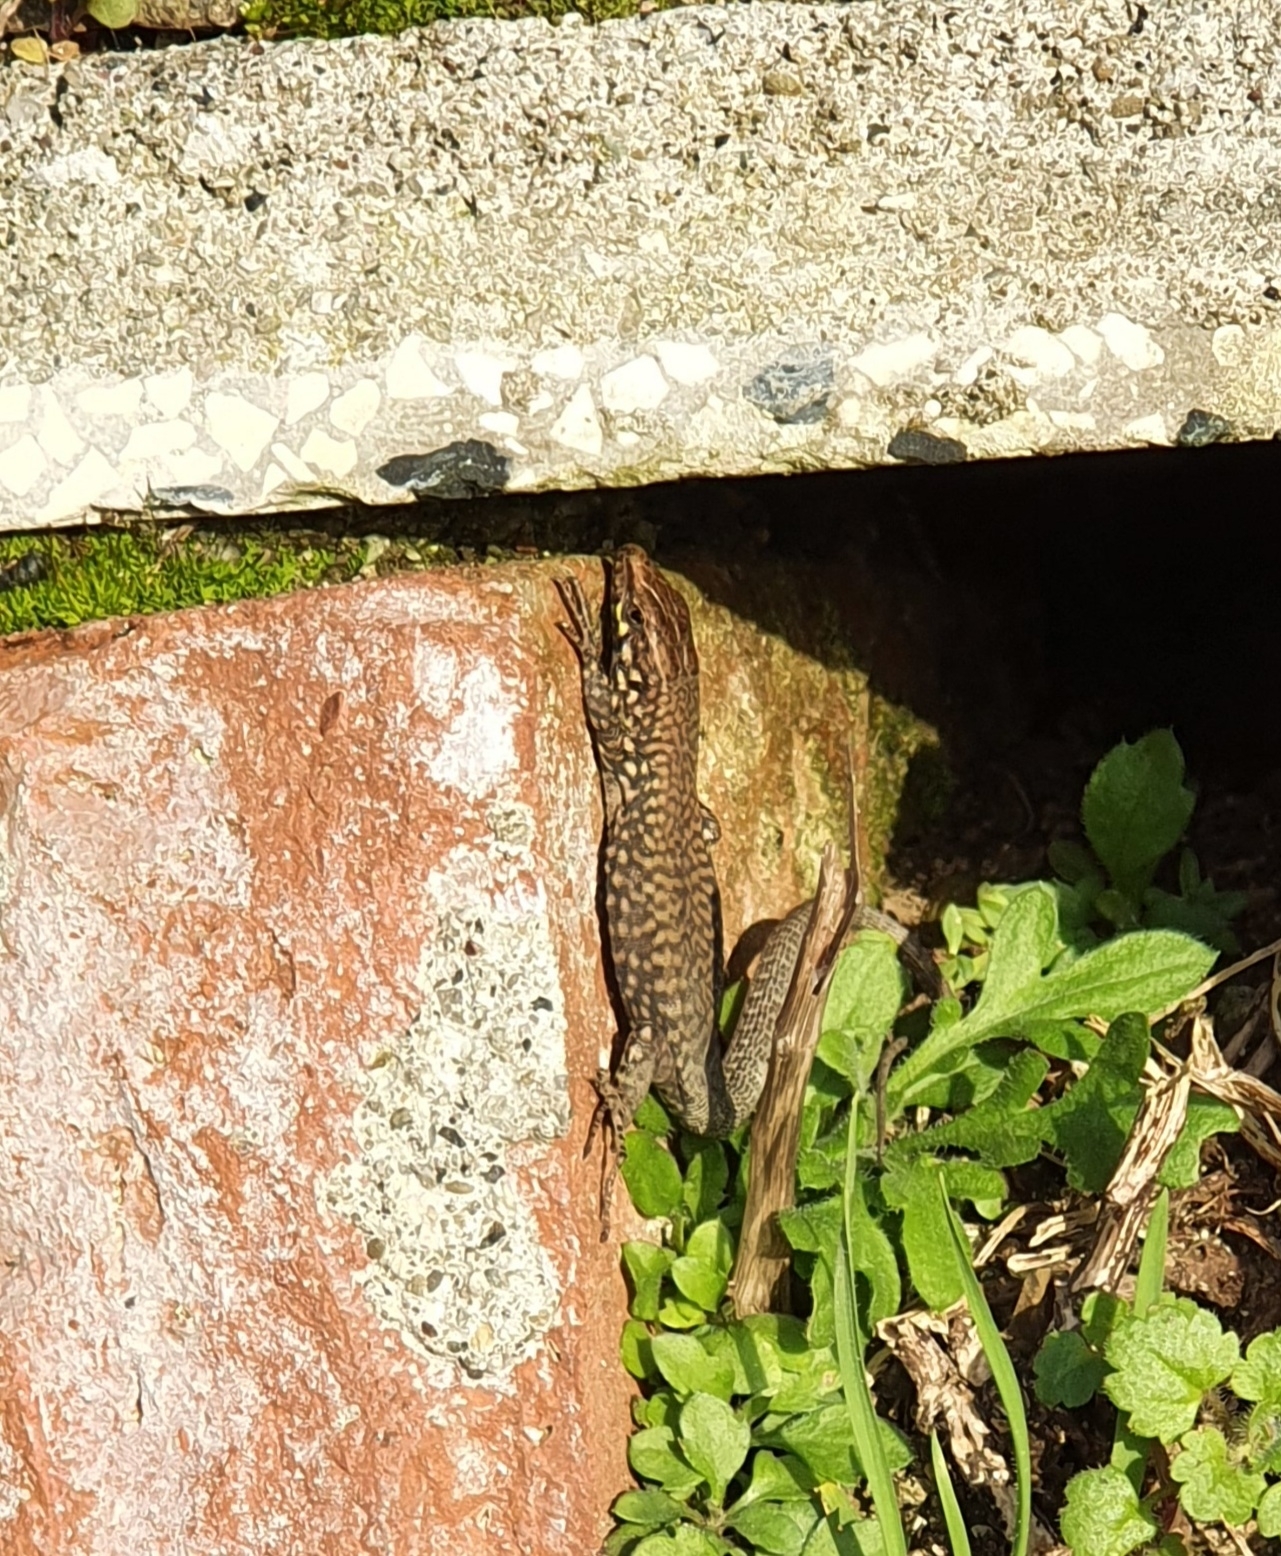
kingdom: Animalia
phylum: Chordata
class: Squamata
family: Lacertidae
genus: Podarcis
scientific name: Podarcis muralis
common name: Common wall lizard
